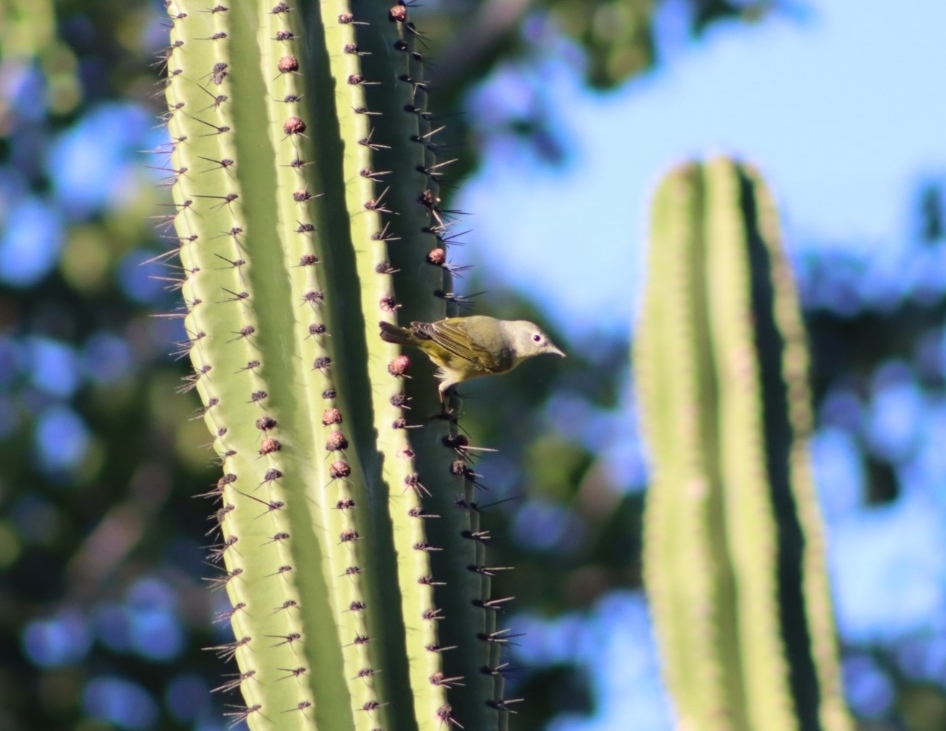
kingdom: Animalia
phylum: Chordata
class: Aves
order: Passeriformes
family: Parulidae
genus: Leiothlypis
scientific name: Leiothlypis ruficapilla
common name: Nashville warbler
